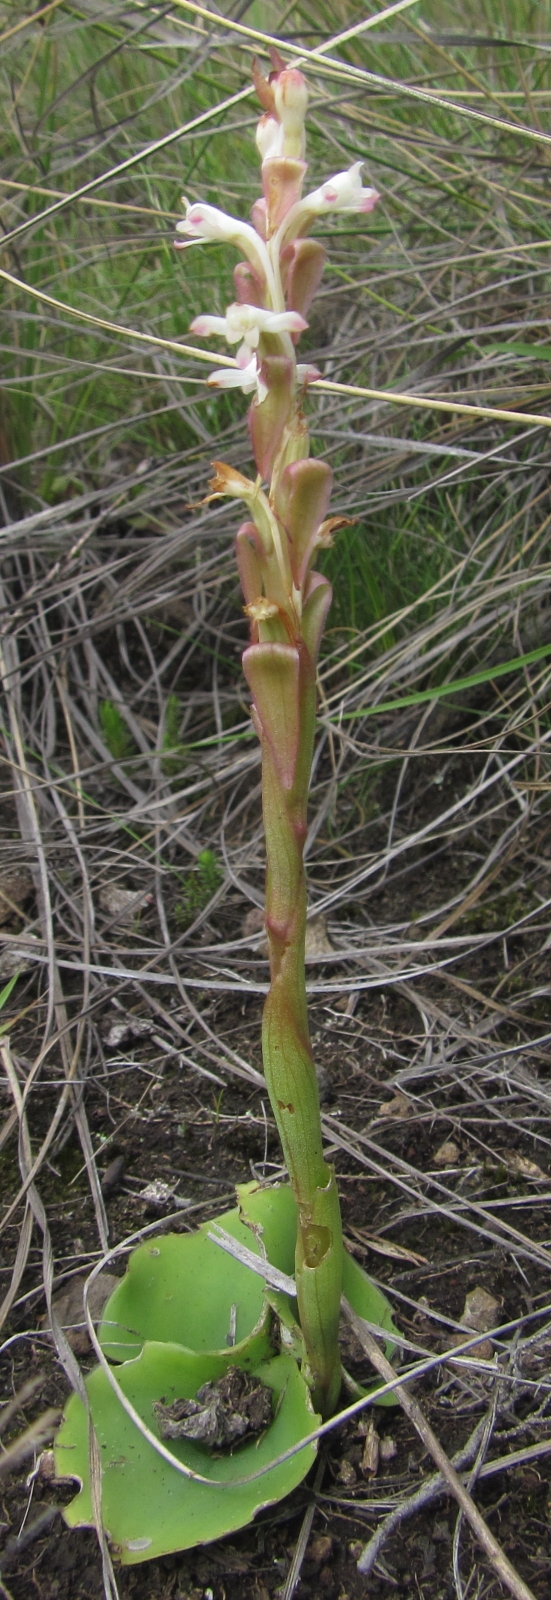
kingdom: Plantae
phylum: Tracheophyta
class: Liliopsida
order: Asparagales
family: Orchidaceae
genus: Satyrium
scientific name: Satyrium longicauda
